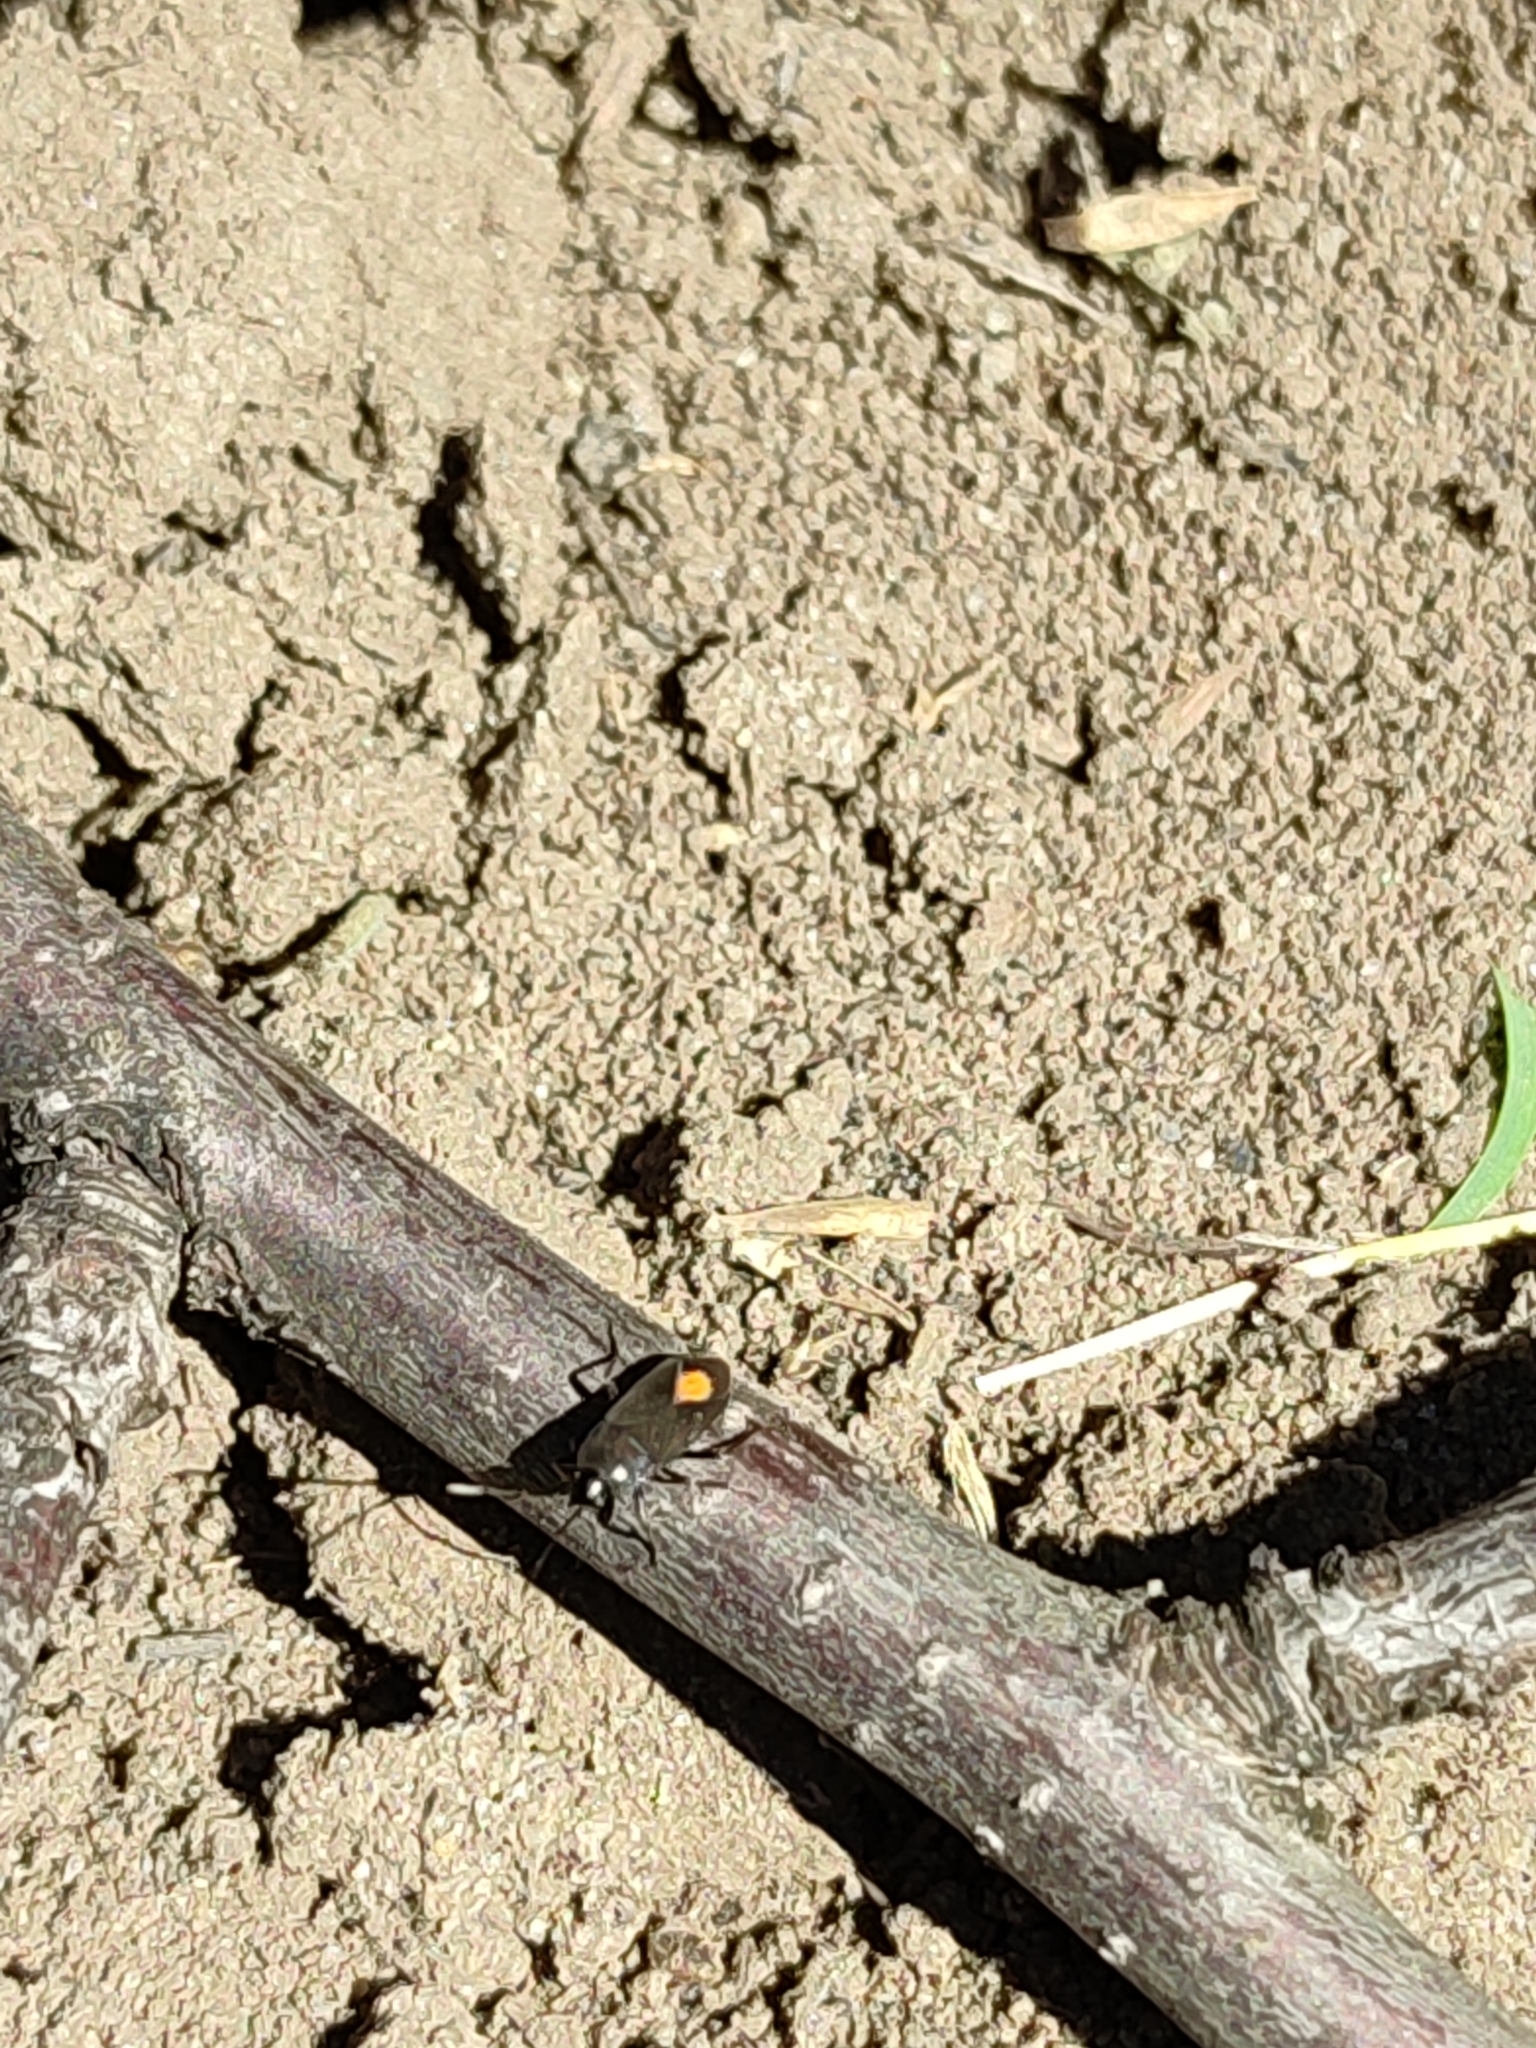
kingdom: Animalia
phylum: Arthropoda
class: Insecta
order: Hemiptera
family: Rhyparochromidae
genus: Aphanus
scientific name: Aphanus rolandri
